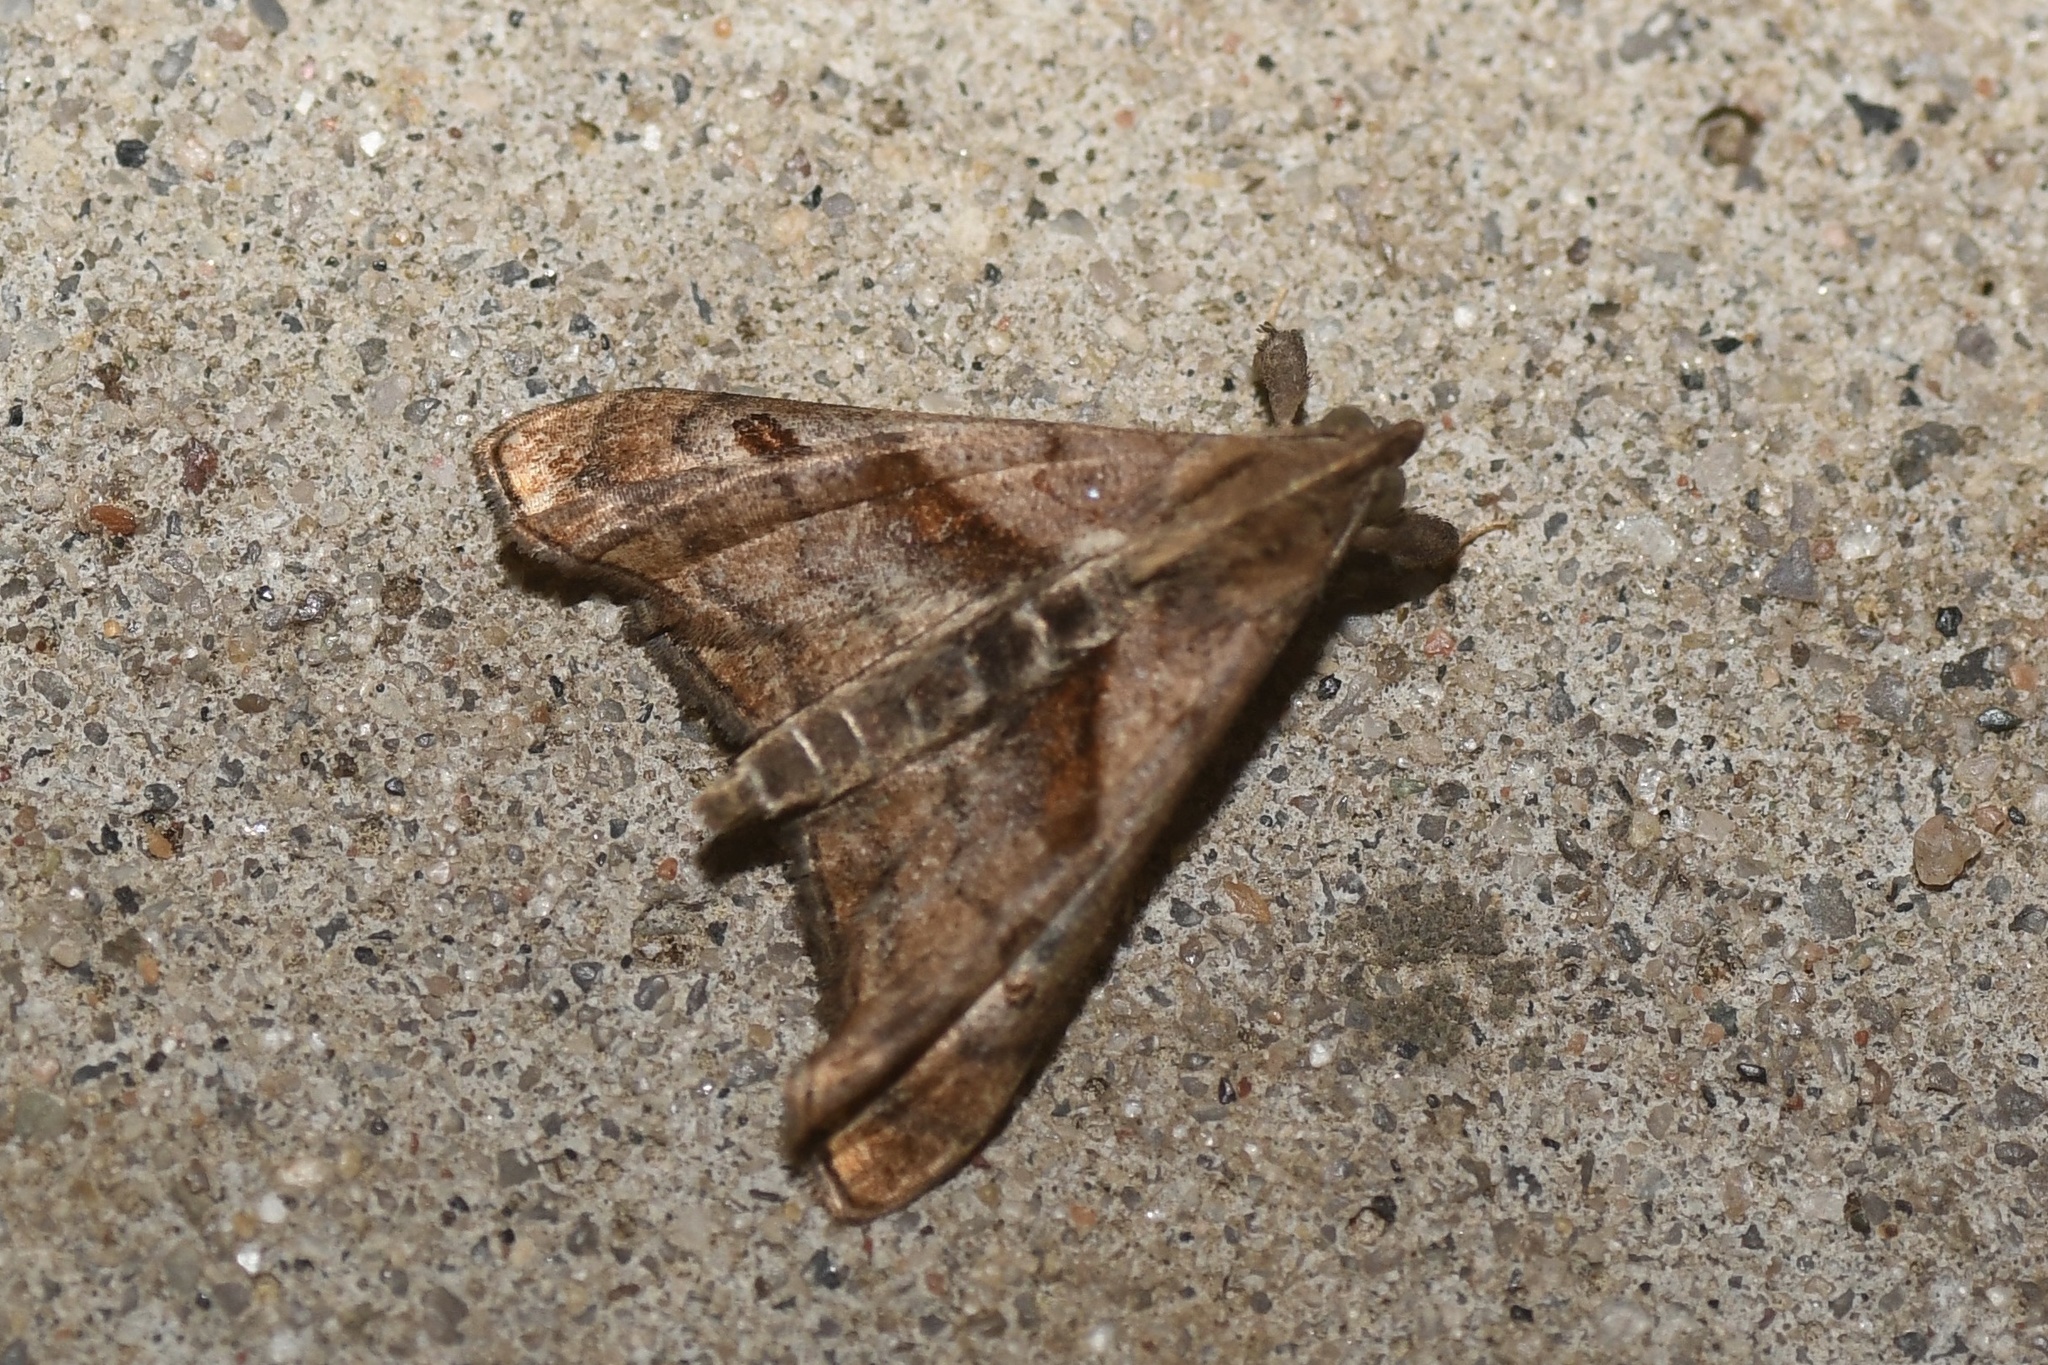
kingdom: Animalia
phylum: Arthropoda
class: Insecta
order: Lepidoptera
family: Erebidae
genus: Palthis
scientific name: Palthis angulalis
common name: Dark-spotted palthis moth
